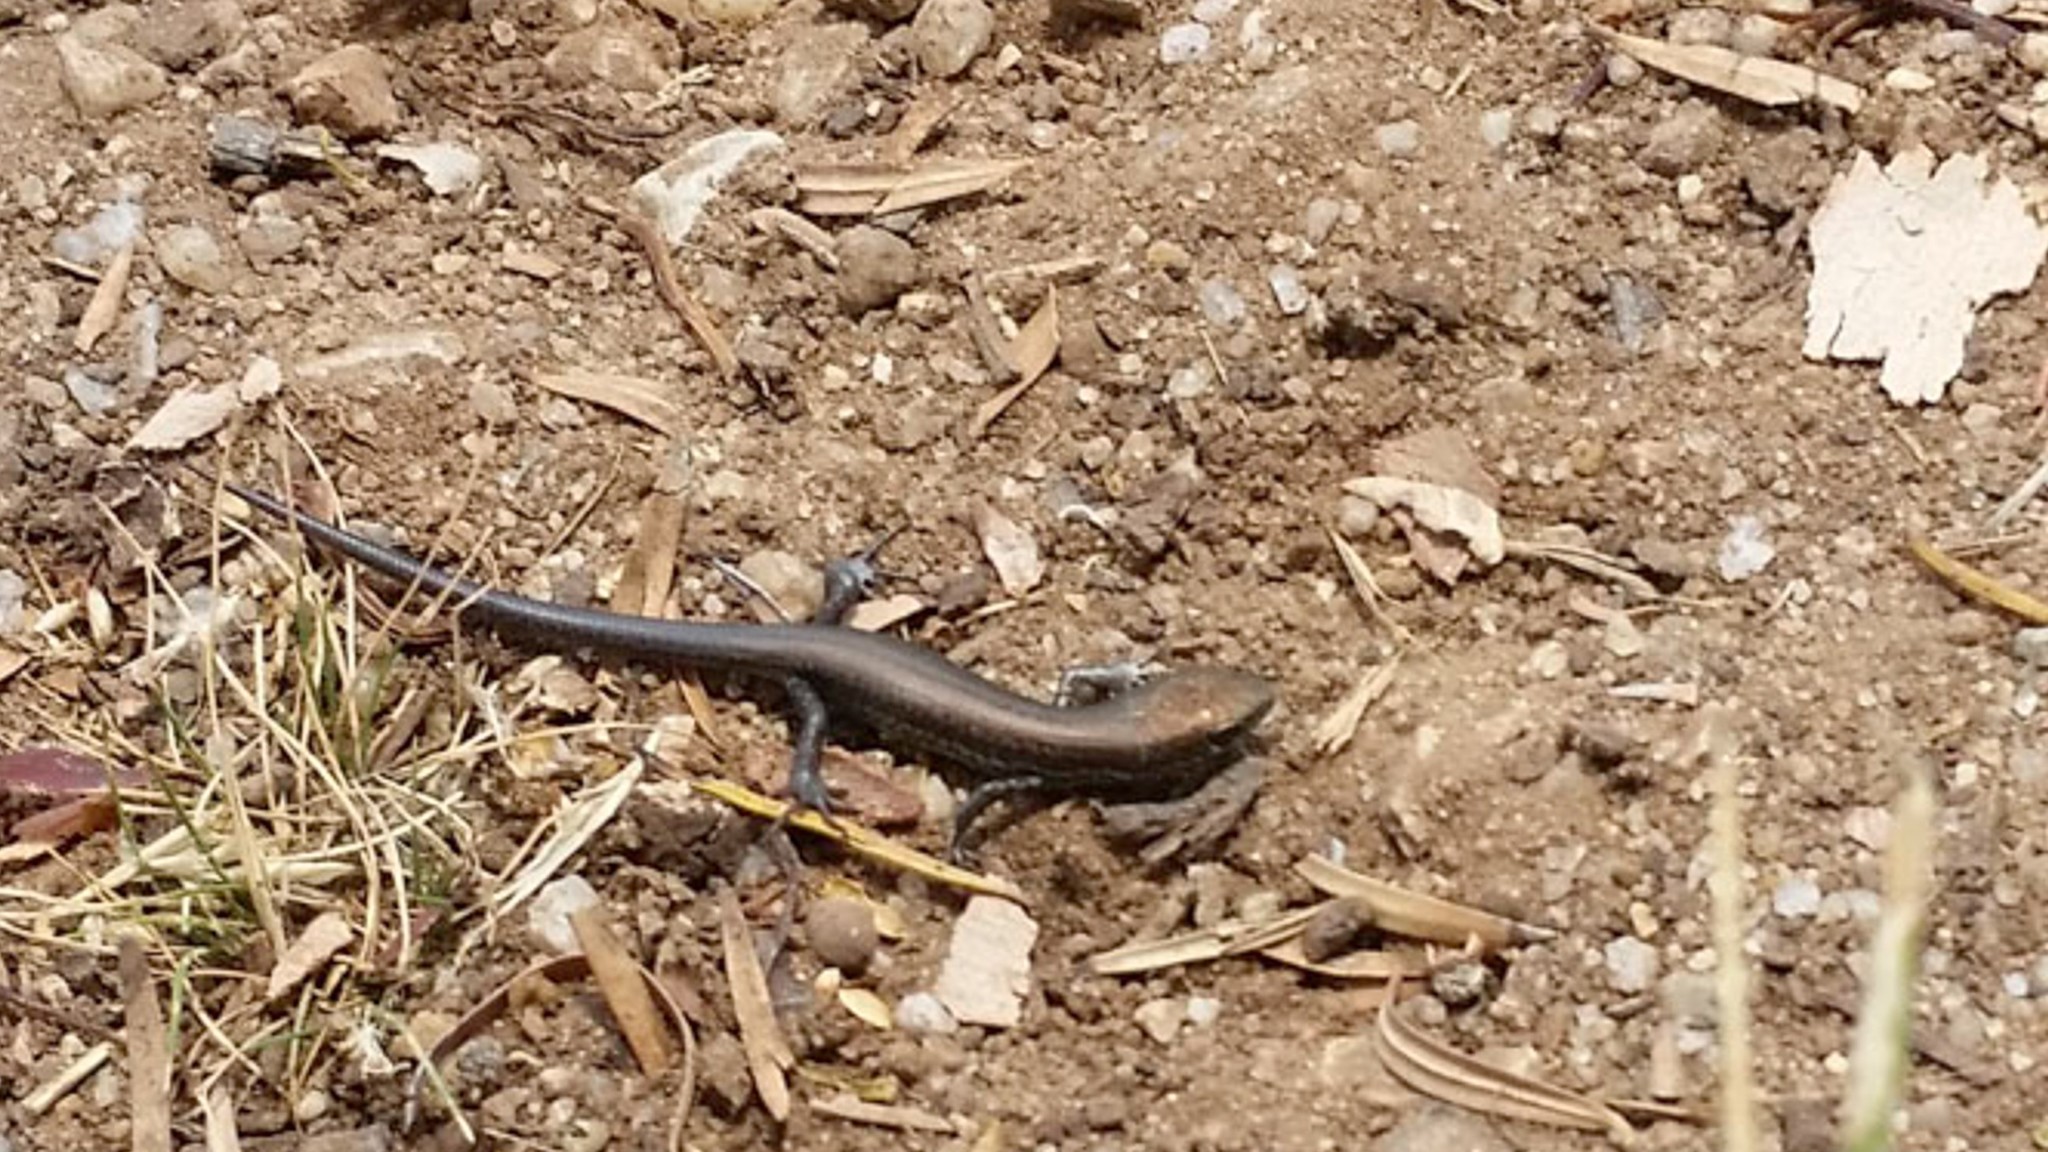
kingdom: Animalia
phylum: Chordata
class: Squamata
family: Scincidae
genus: Lampropholis
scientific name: Lampropholis guichenoti
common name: Garden skink
